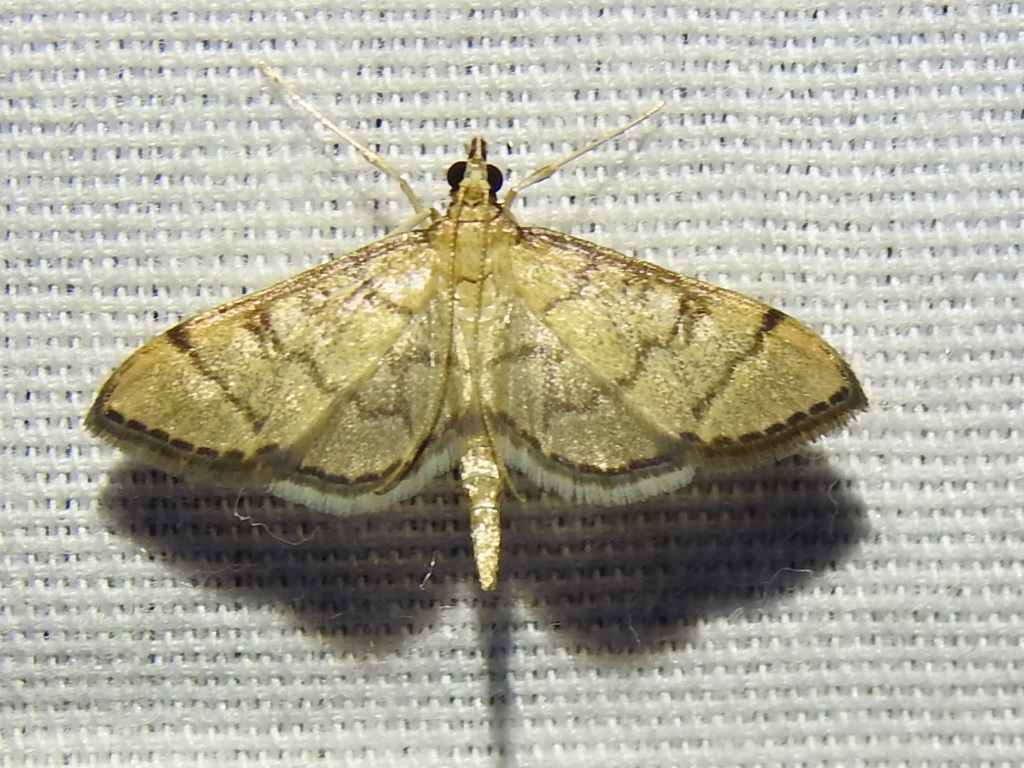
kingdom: Animalia
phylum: Arthropoda
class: Insecta
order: Lepidoptera
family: Crambidae
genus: Lamprosema
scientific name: Lamprosema Blepharomastix ranalis
